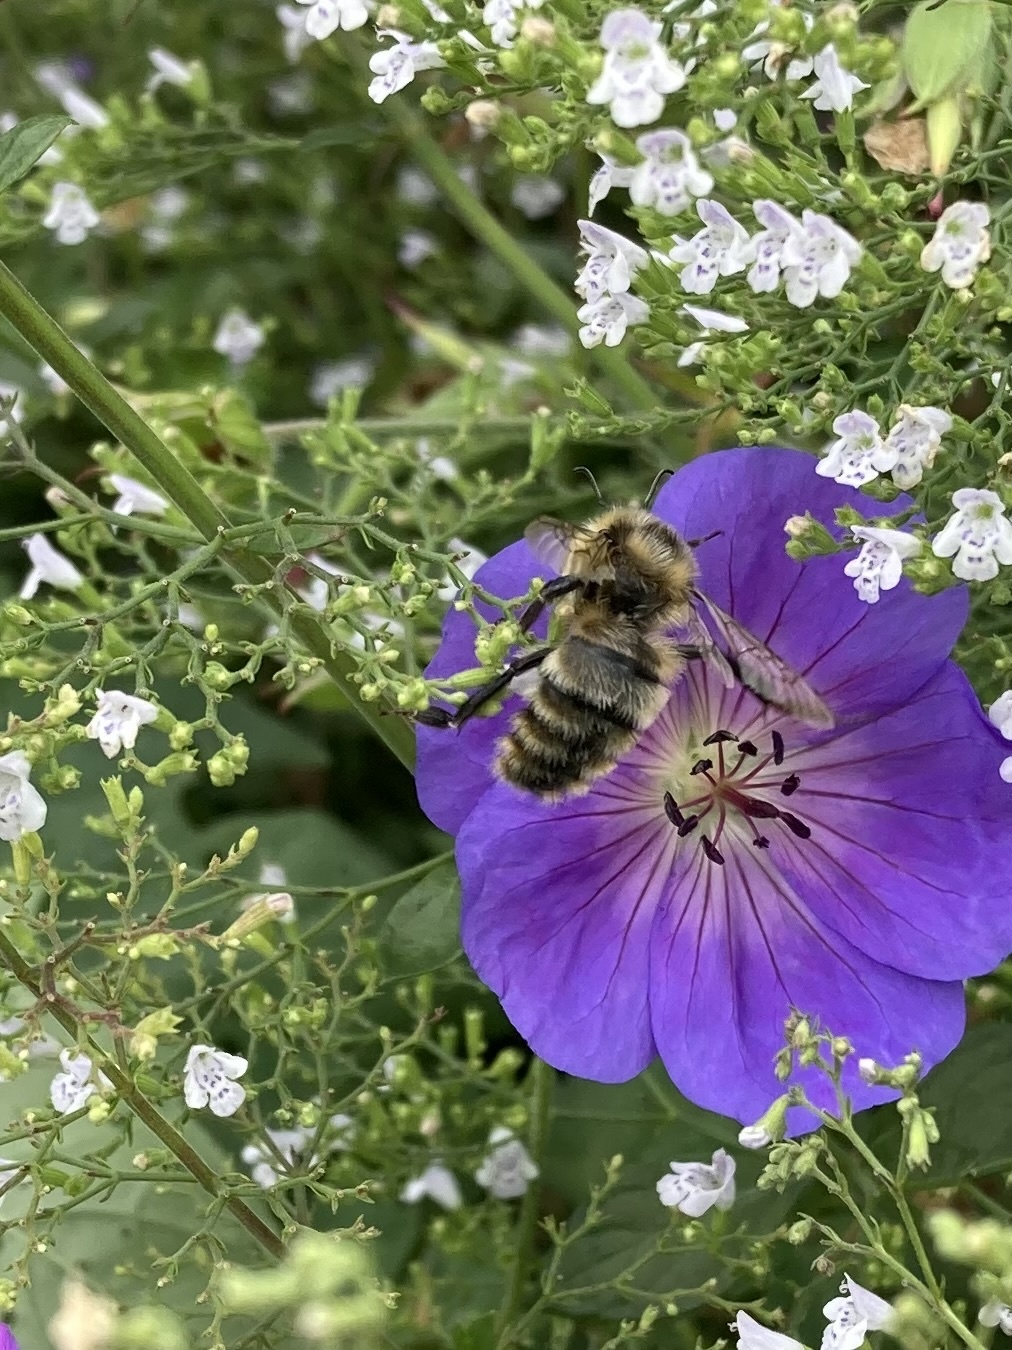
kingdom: Animalia
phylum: Arthropoda
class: Insecta
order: Hymenoptera
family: Apidae
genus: Bombus
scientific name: Bombus rufocinctus
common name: Red-belted bumble bee
